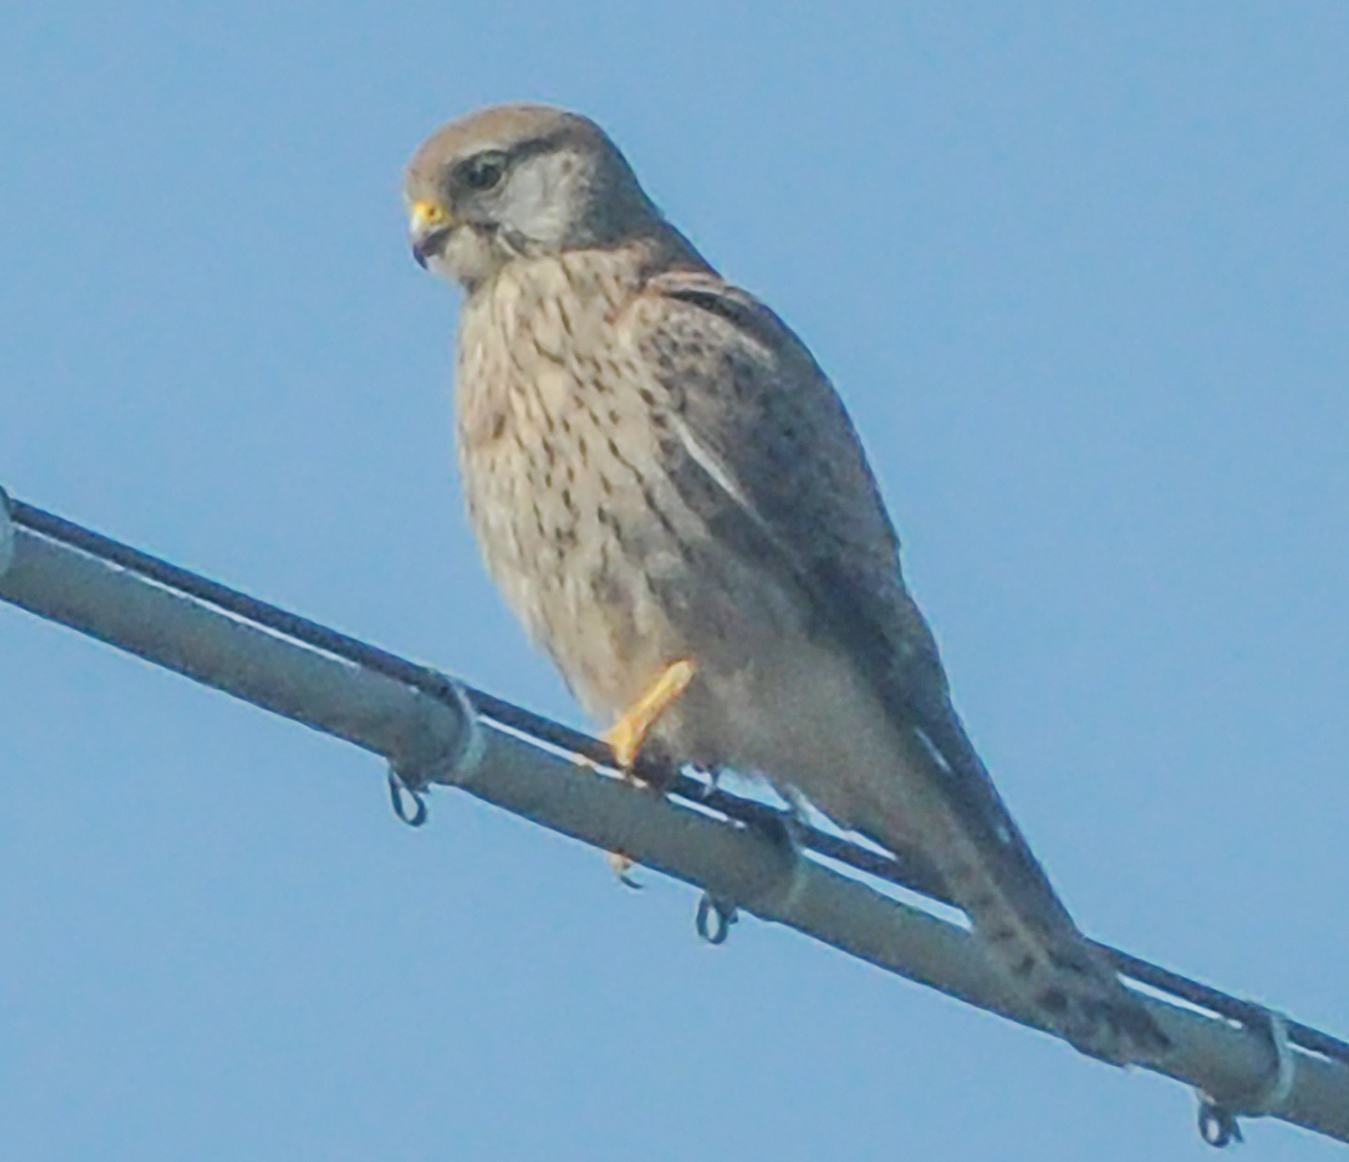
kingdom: Animalia
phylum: Chordata
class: Aves
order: Falconiformes
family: Falconidae
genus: Falco
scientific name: Falco tinnunculus
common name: Common kestrel
